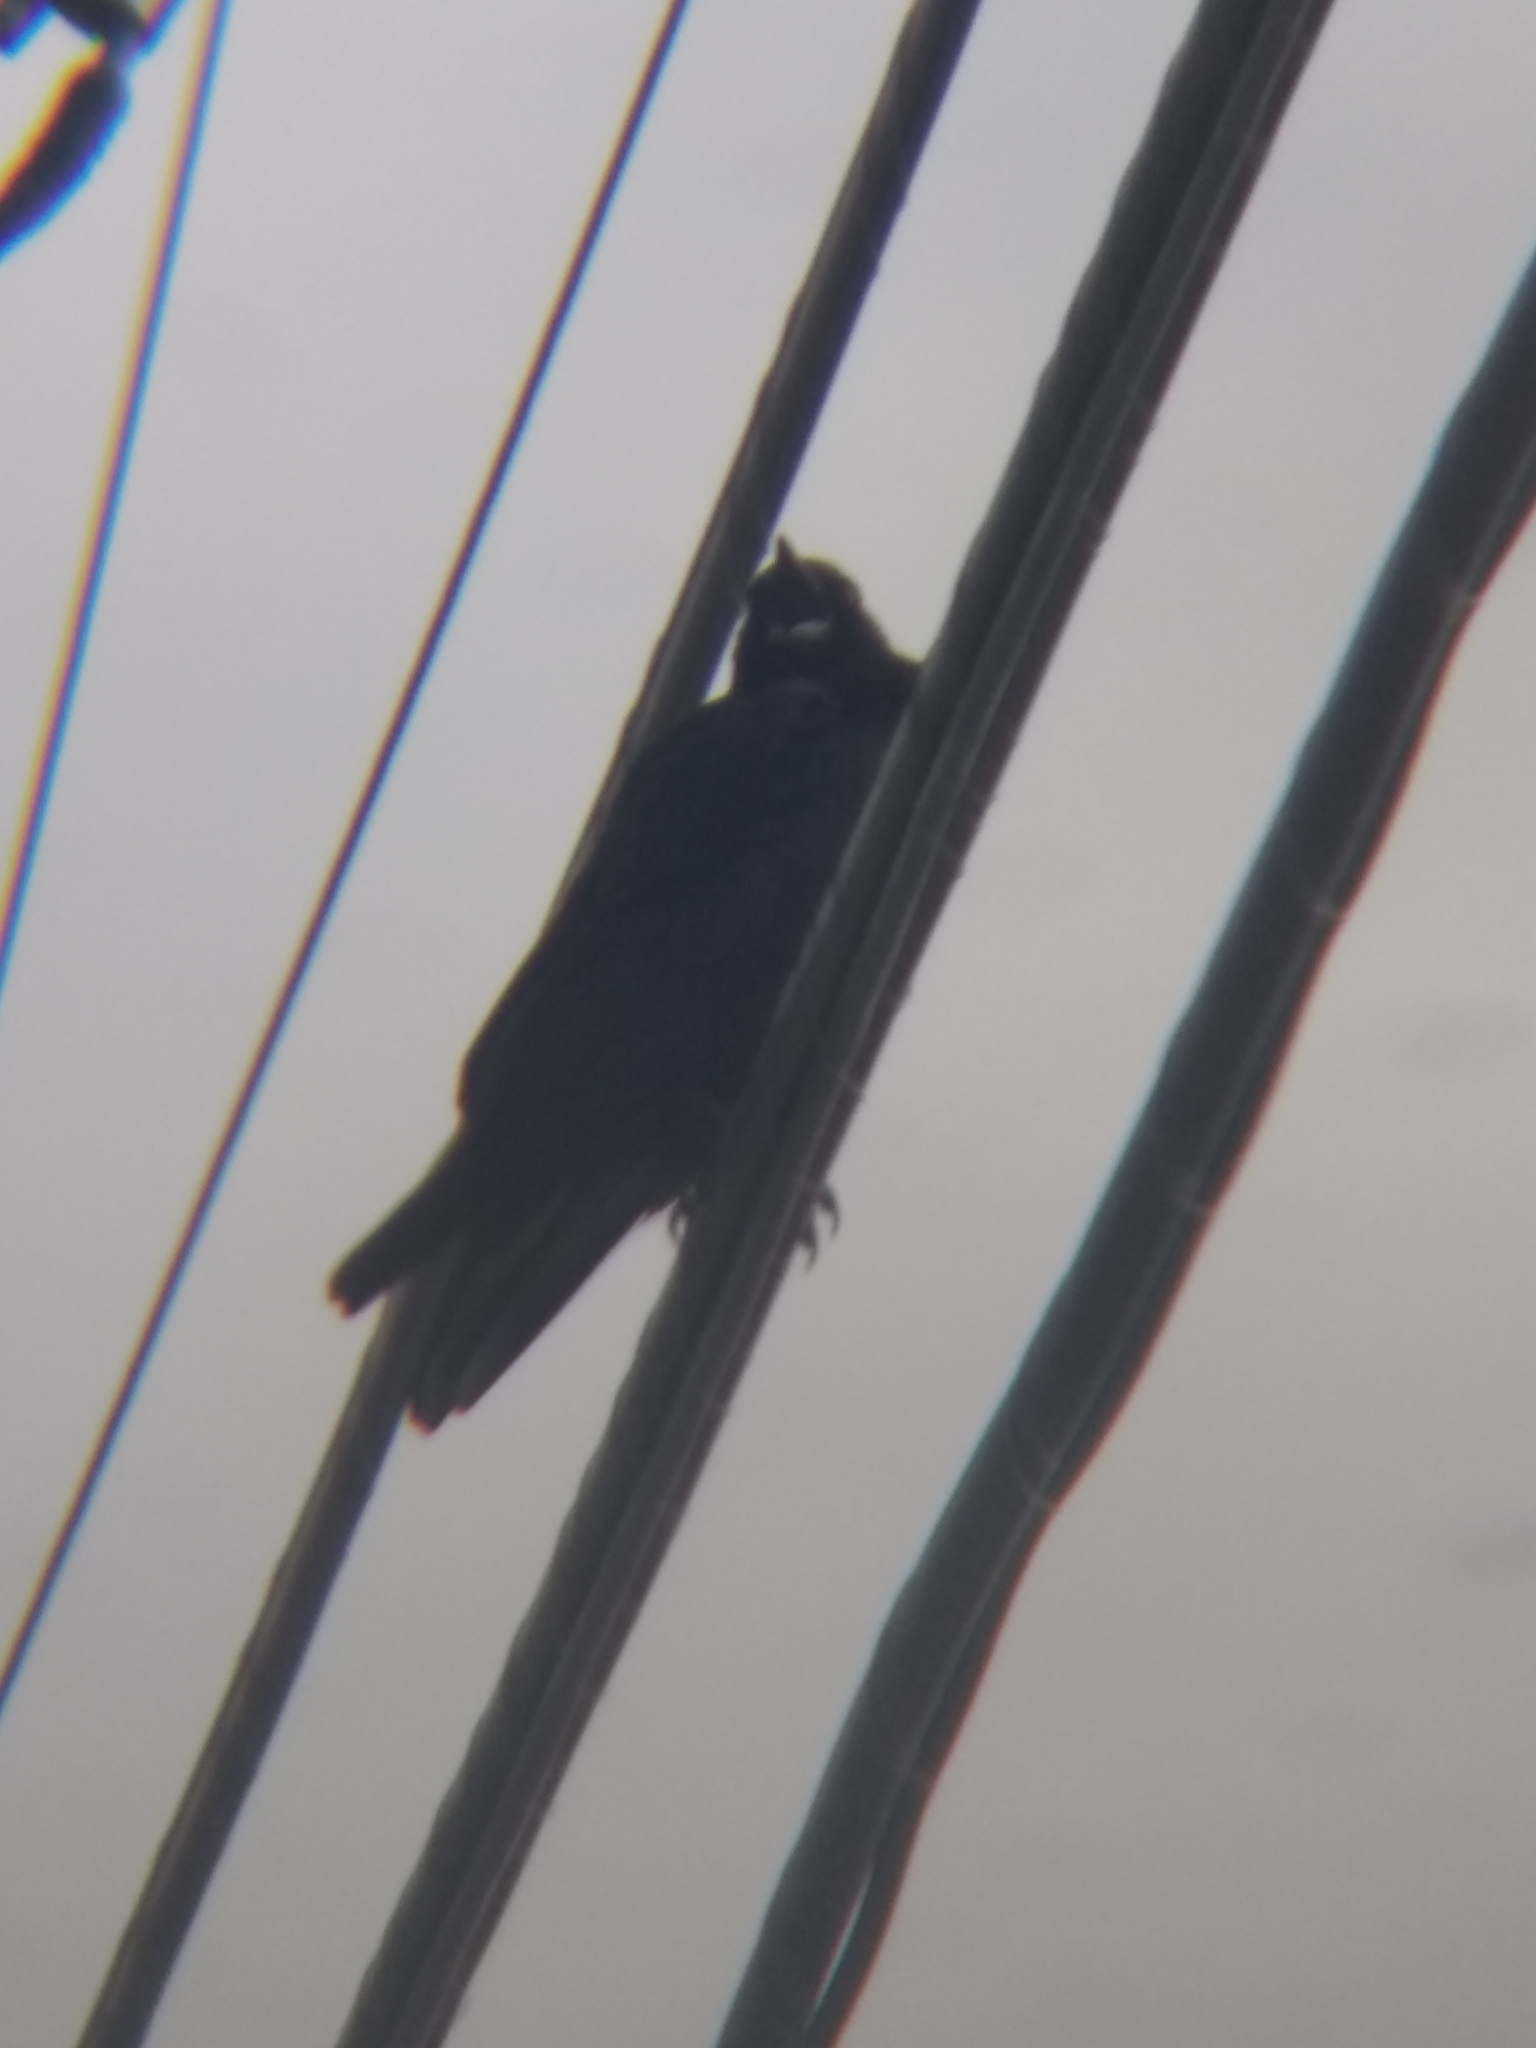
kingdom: Animalia
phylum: Chordata
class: Aves
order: Passeriformes
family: Corvidae
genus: Corvus
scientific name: Corvus brachyrhynchos
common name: American crow
